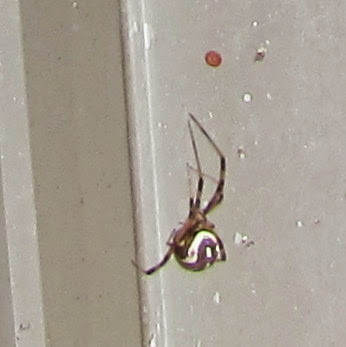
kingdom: Animalia
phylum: Arthropoda
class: Arachnida
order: Araneae
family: Theridiidae
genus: Latrodectus
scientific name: Latrodectus hesperus
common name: Western black widow
